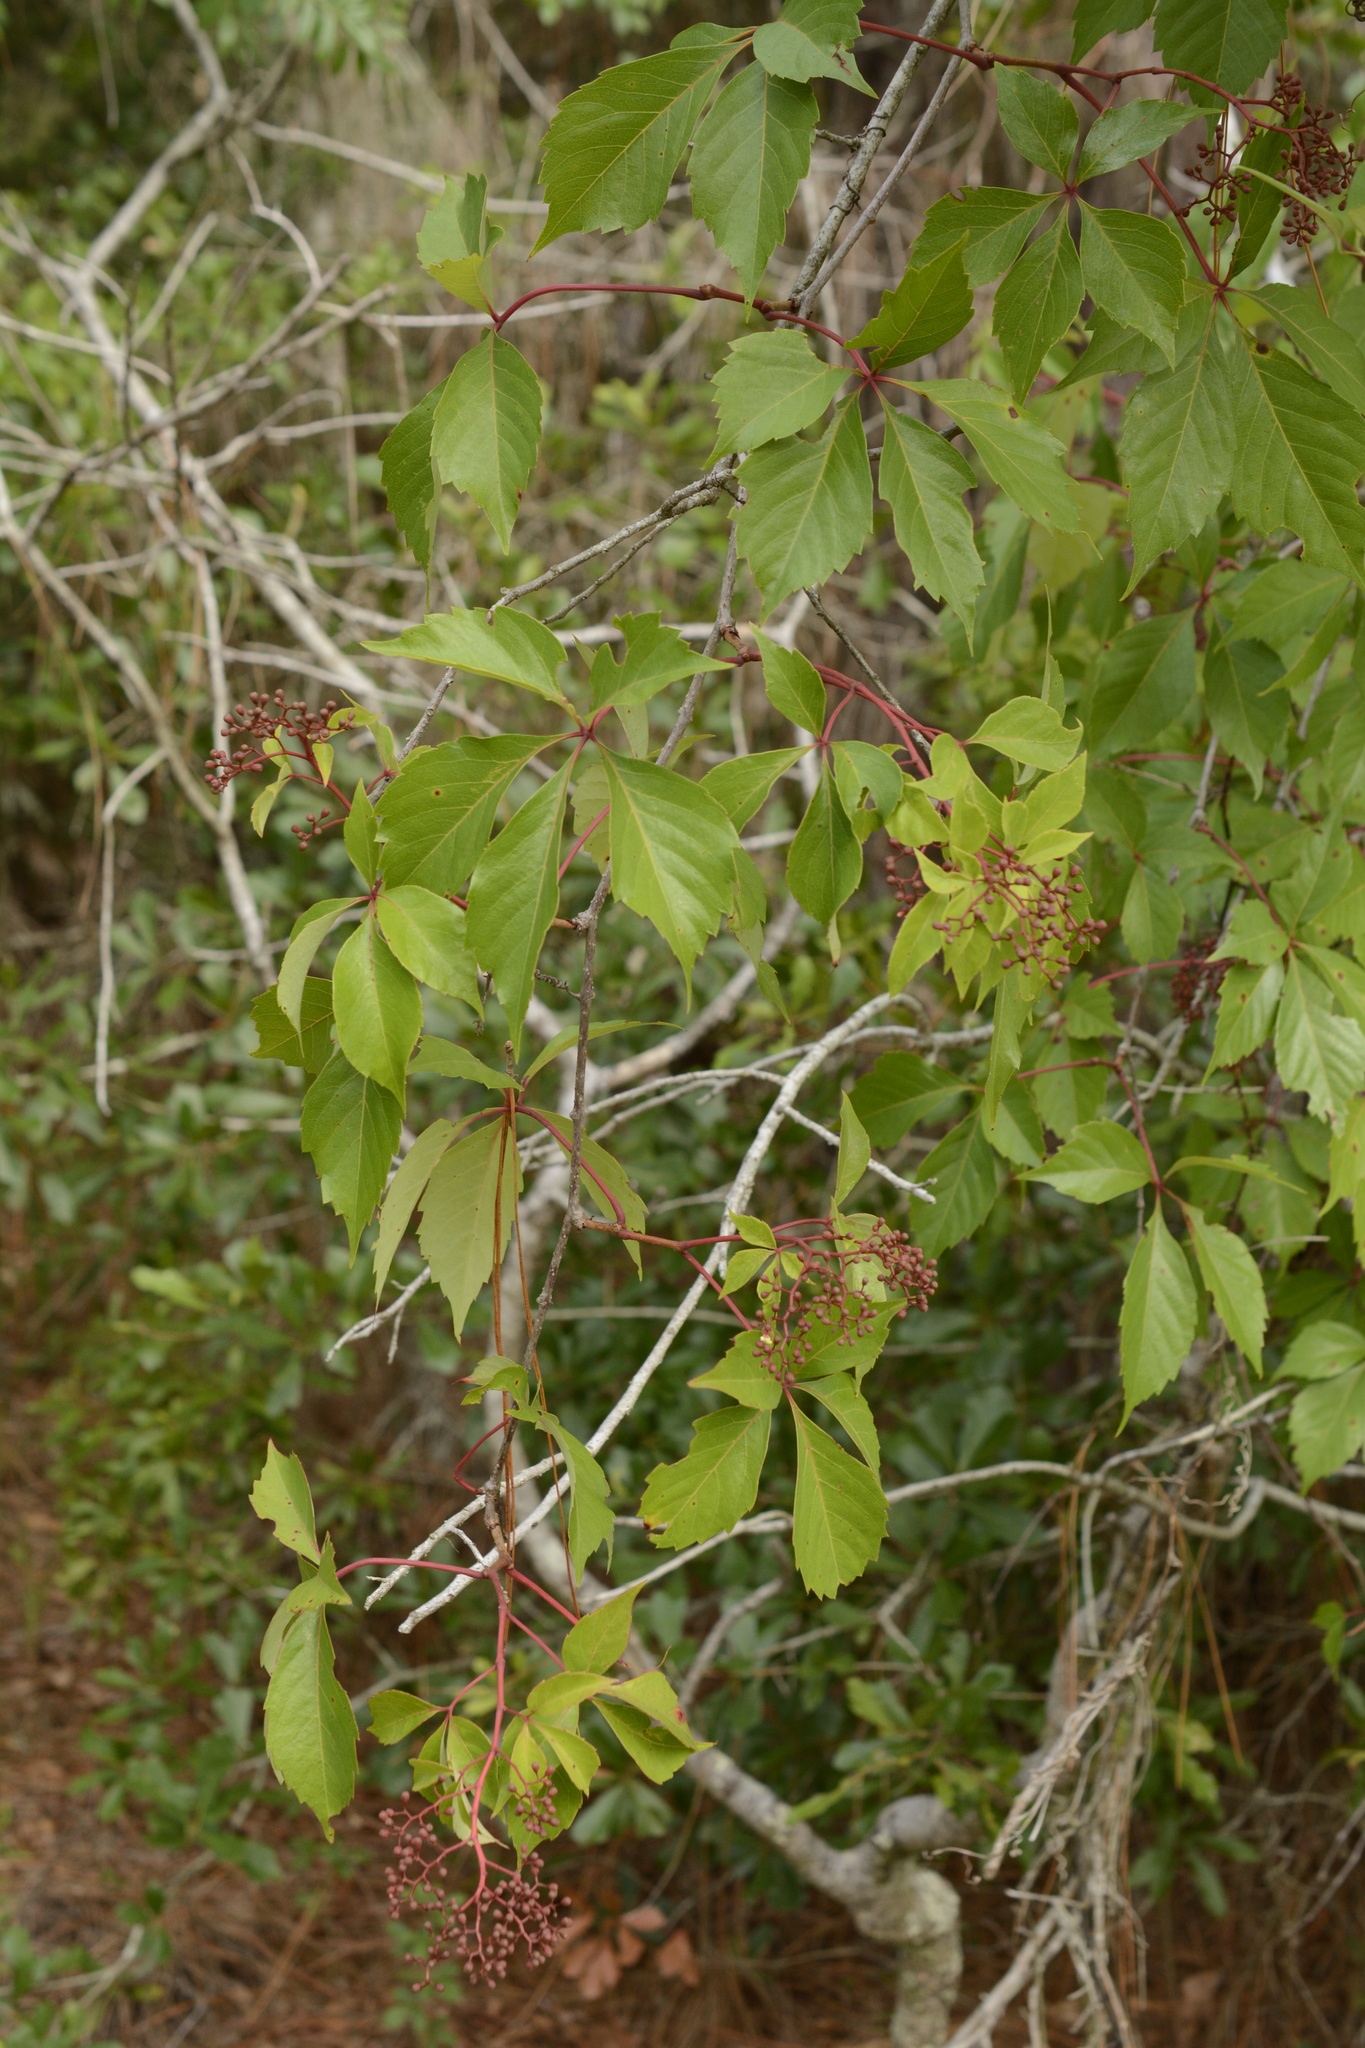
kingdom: Plantae
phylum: Tracheophyta
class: Magnoliopsida
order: Vitales
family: Vitaceae
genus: Parthenocissus
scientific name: Parthenocissus quinquefolia
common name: Virginia-creeper
